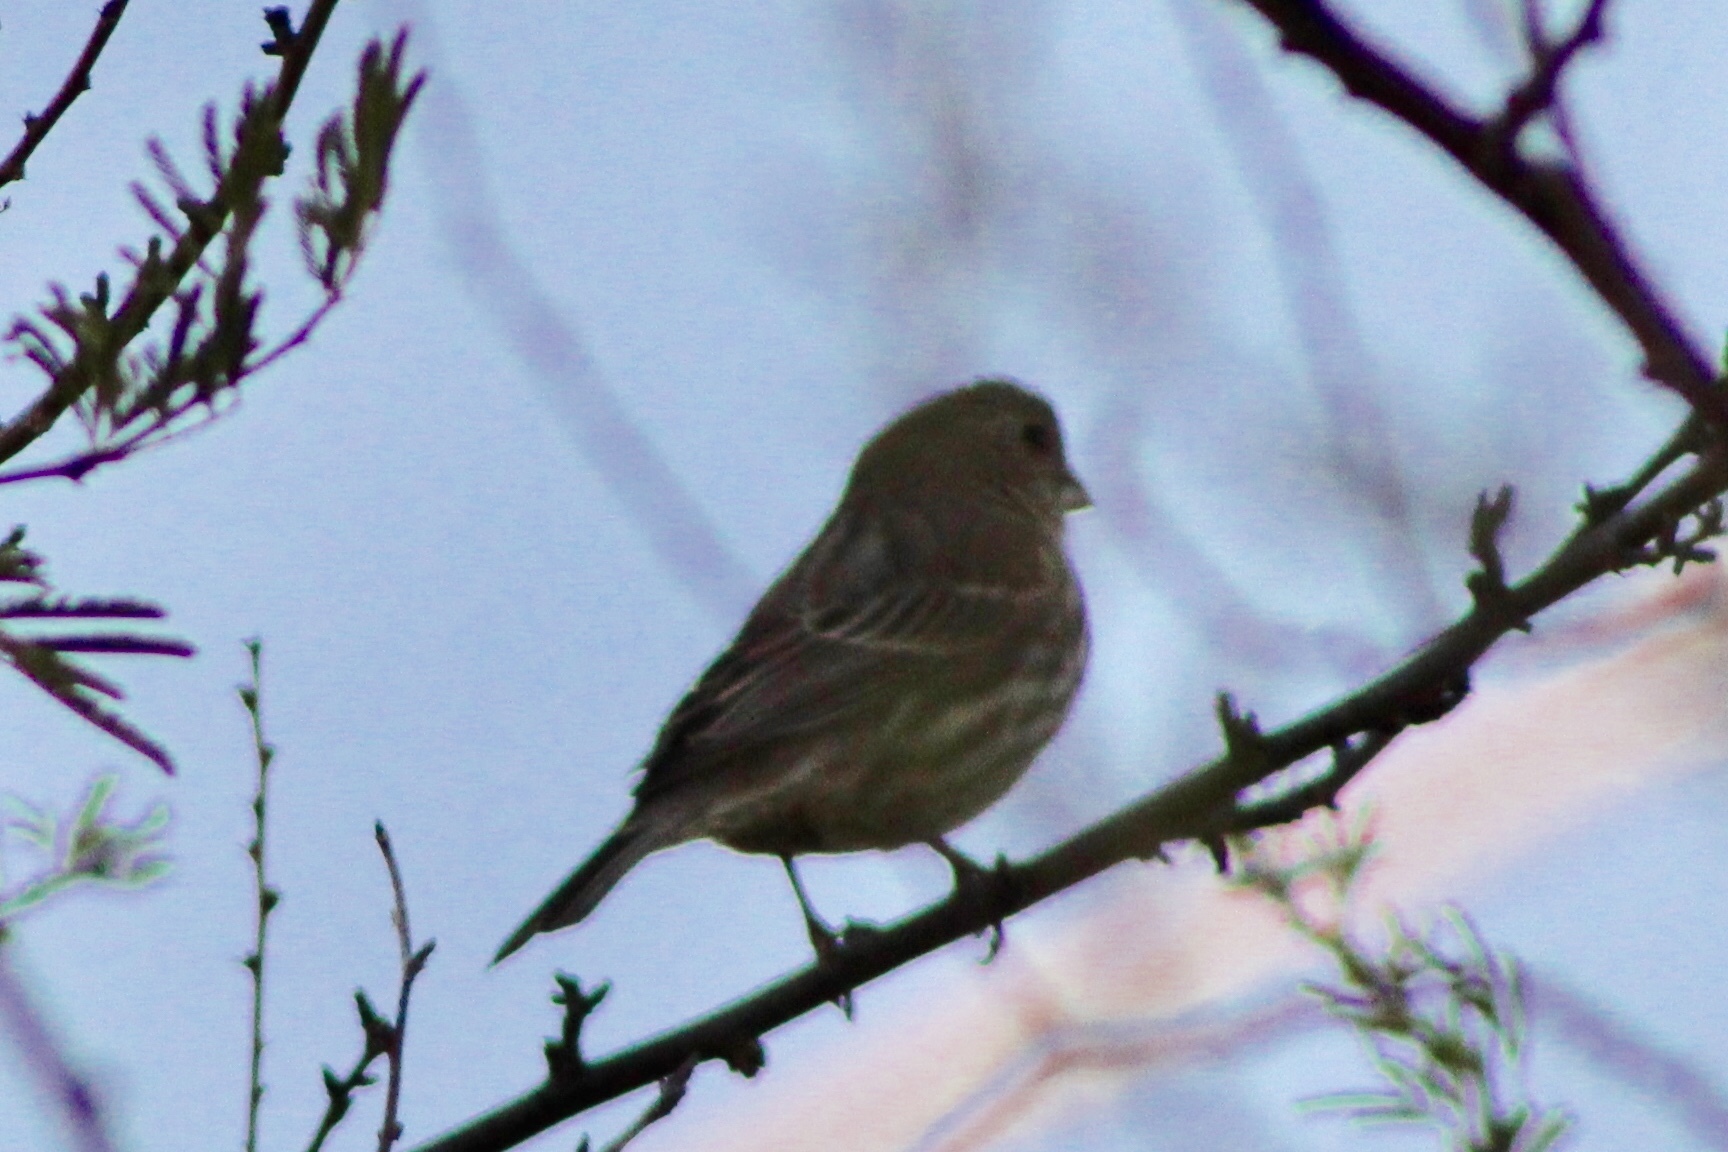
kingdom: Animalia
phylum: Chordata
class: Aves
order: Passeriformes
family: Fringillidae
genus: Haemorhous
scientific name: Haemorhous mexicanus
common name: House finch
